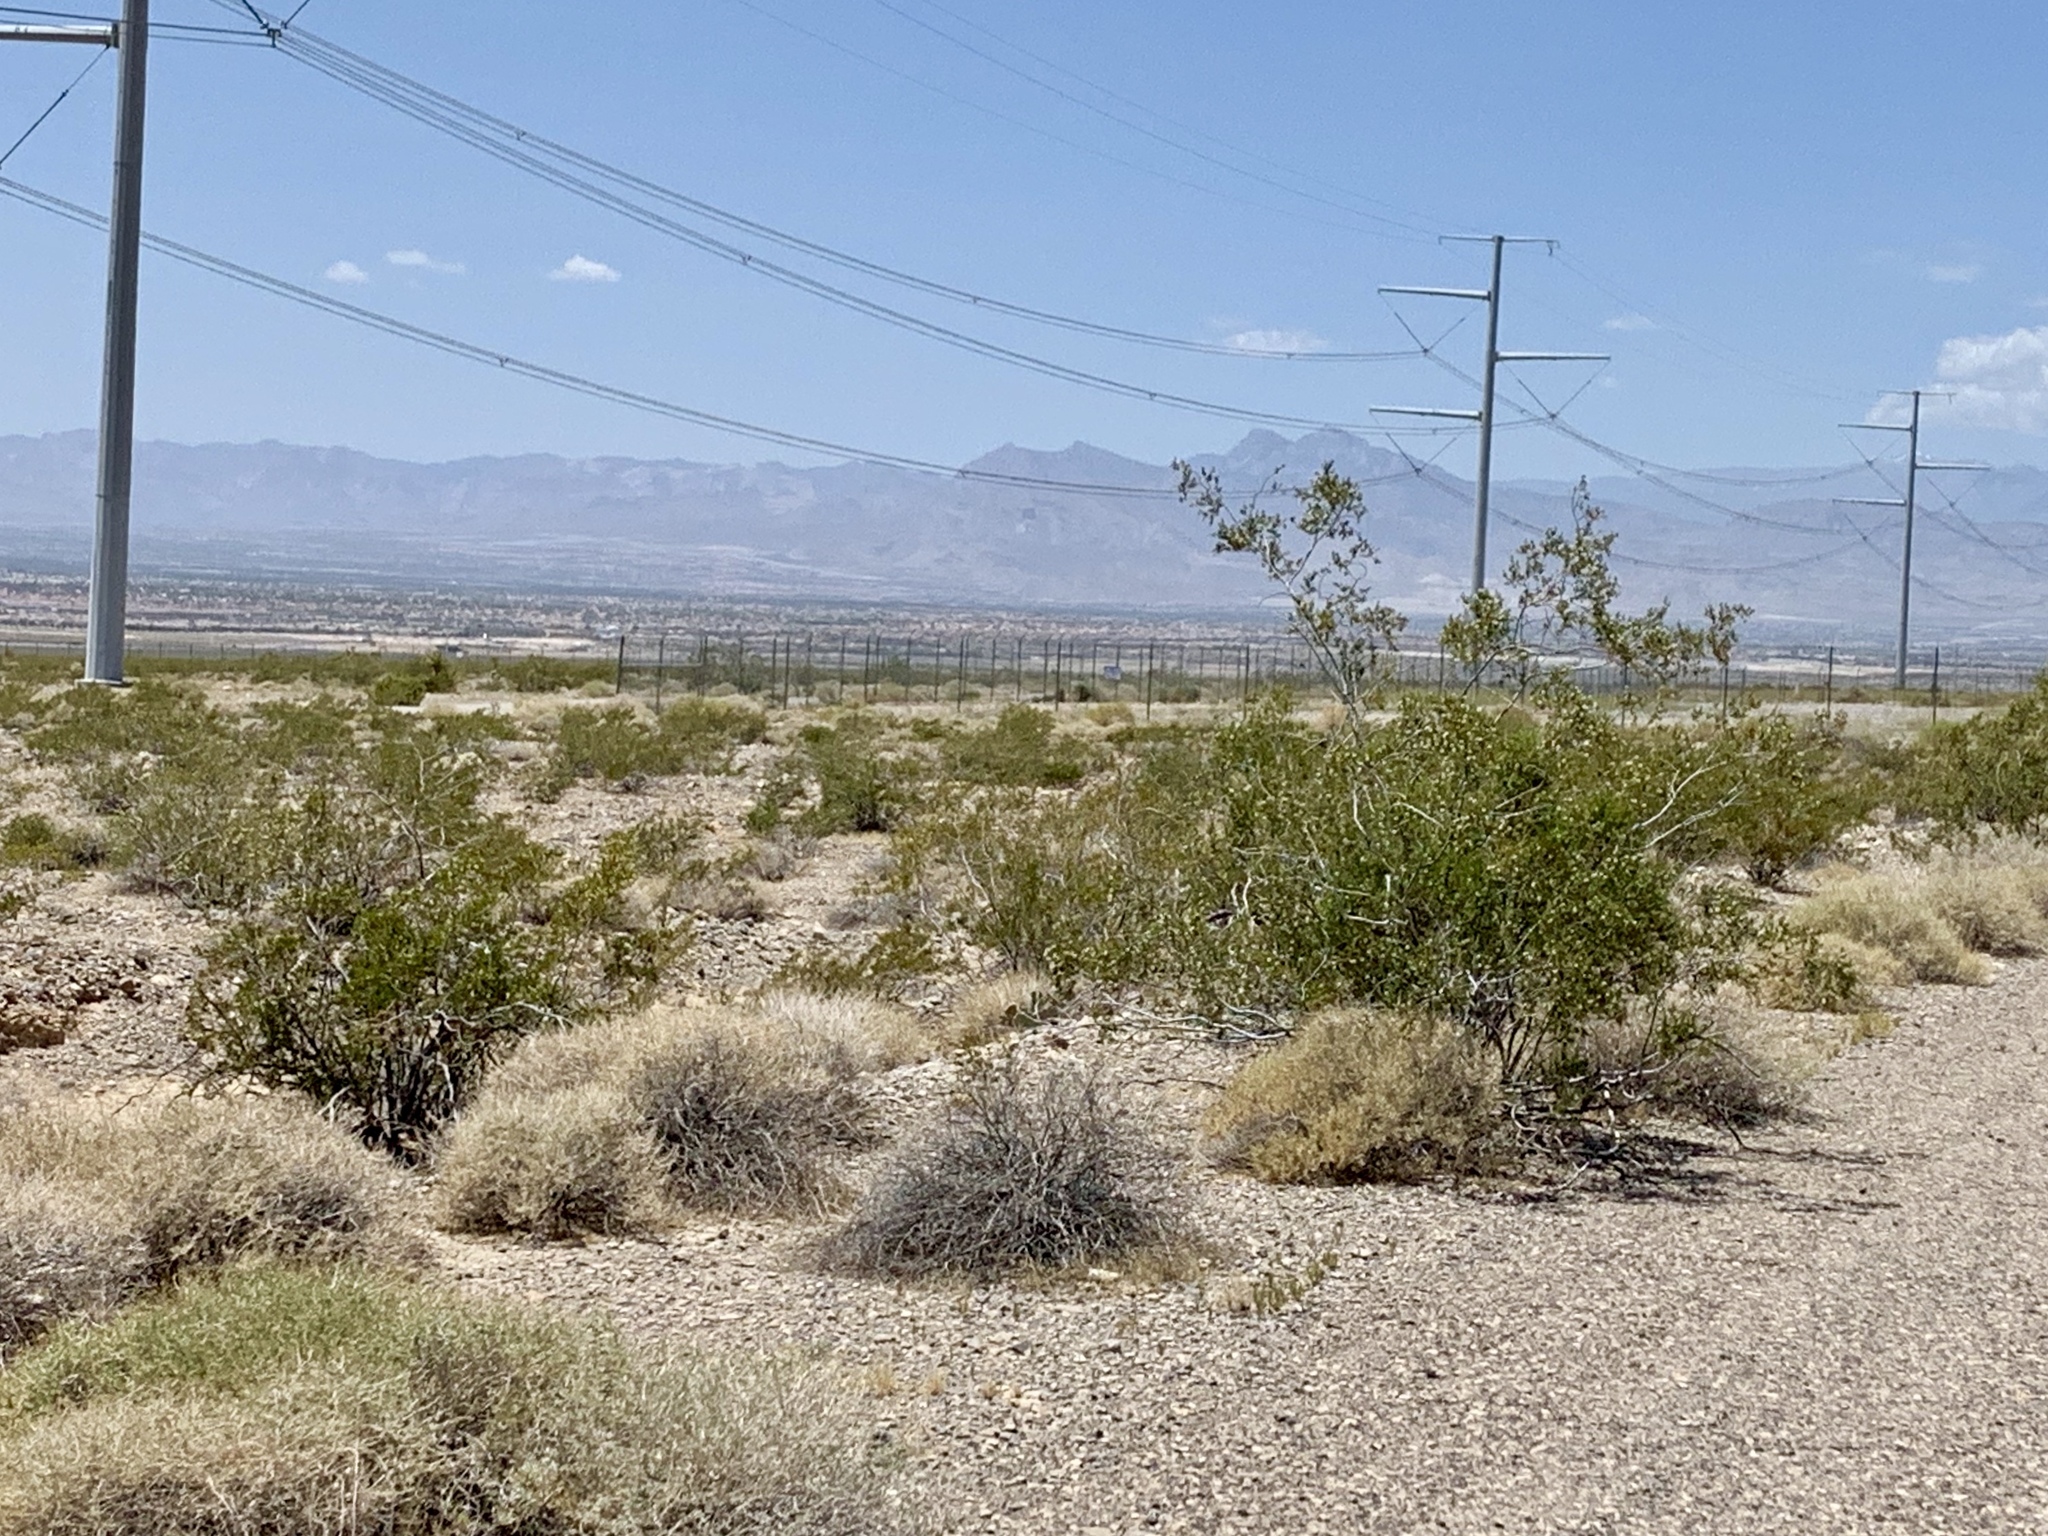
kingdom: Plantae
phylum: Tracheophyta
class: Magnoliopsida
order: Zygophyllales
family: Zygophyllaceae
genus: Larrea
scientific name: Larrea tridentata
